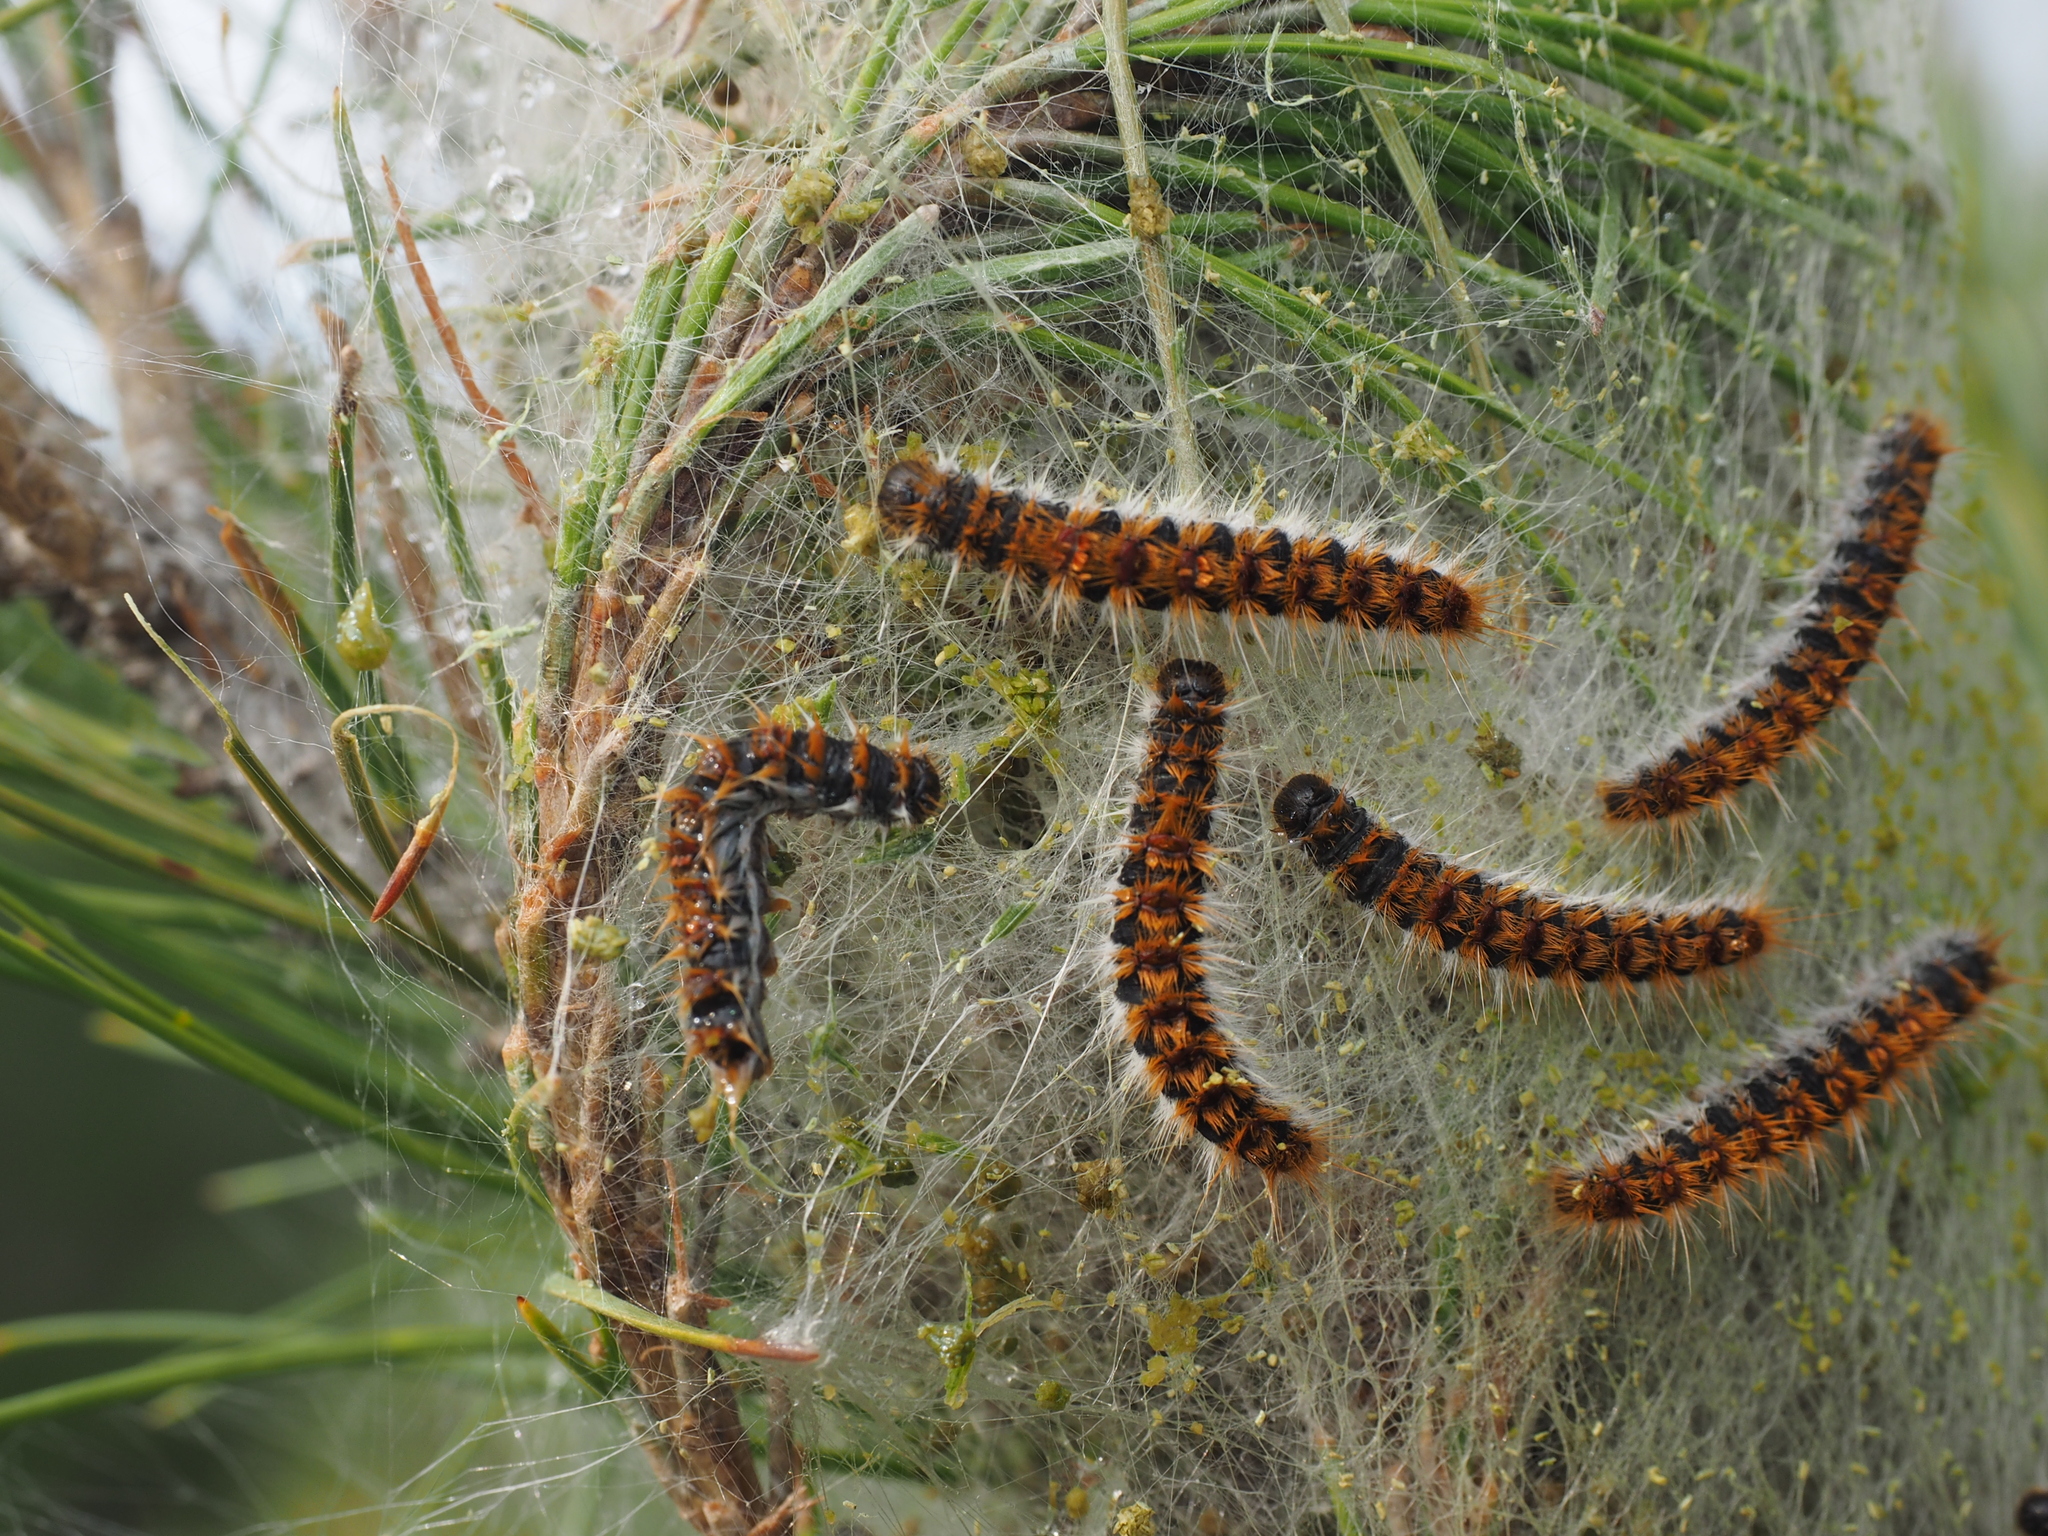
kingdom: Animalia
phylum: Arthropoda
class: Insecta
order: Lepidoptera
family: Notodontidae
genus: Thaumetopoea
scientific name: Thaumetopoea pityocampa
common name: Pine processionary
